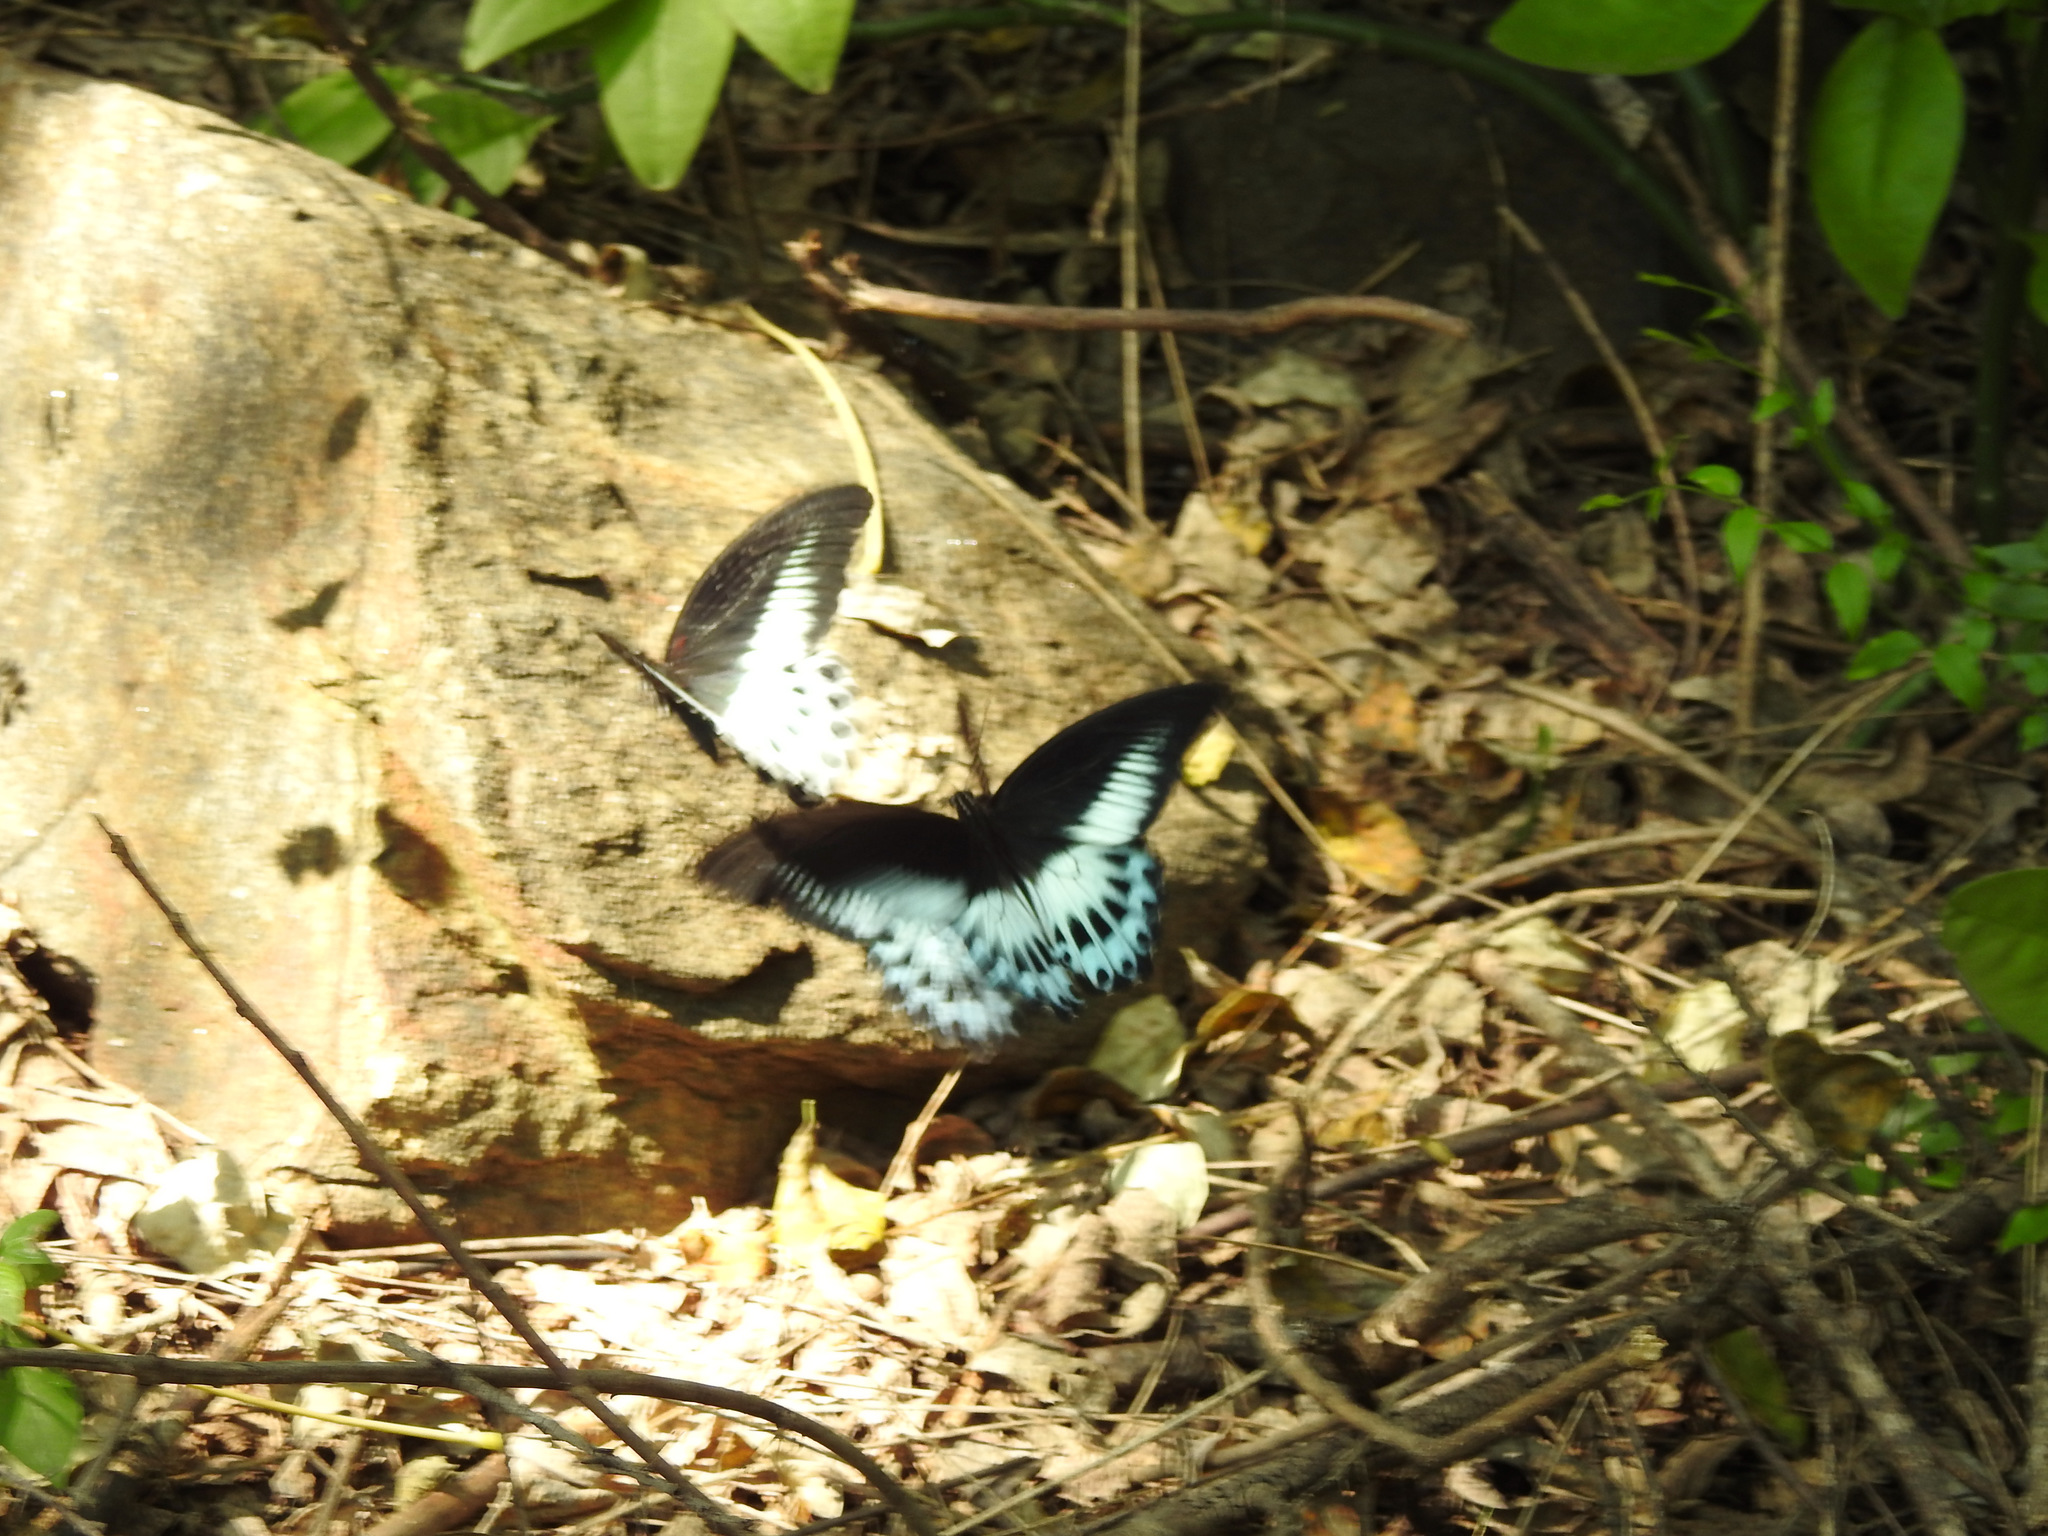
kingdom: Animalia
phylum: Arthropoda
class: Insecta
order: Lepidoptera
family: Papilionidae
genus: Papilio
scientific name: Papilio memnon
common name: Great mormon
